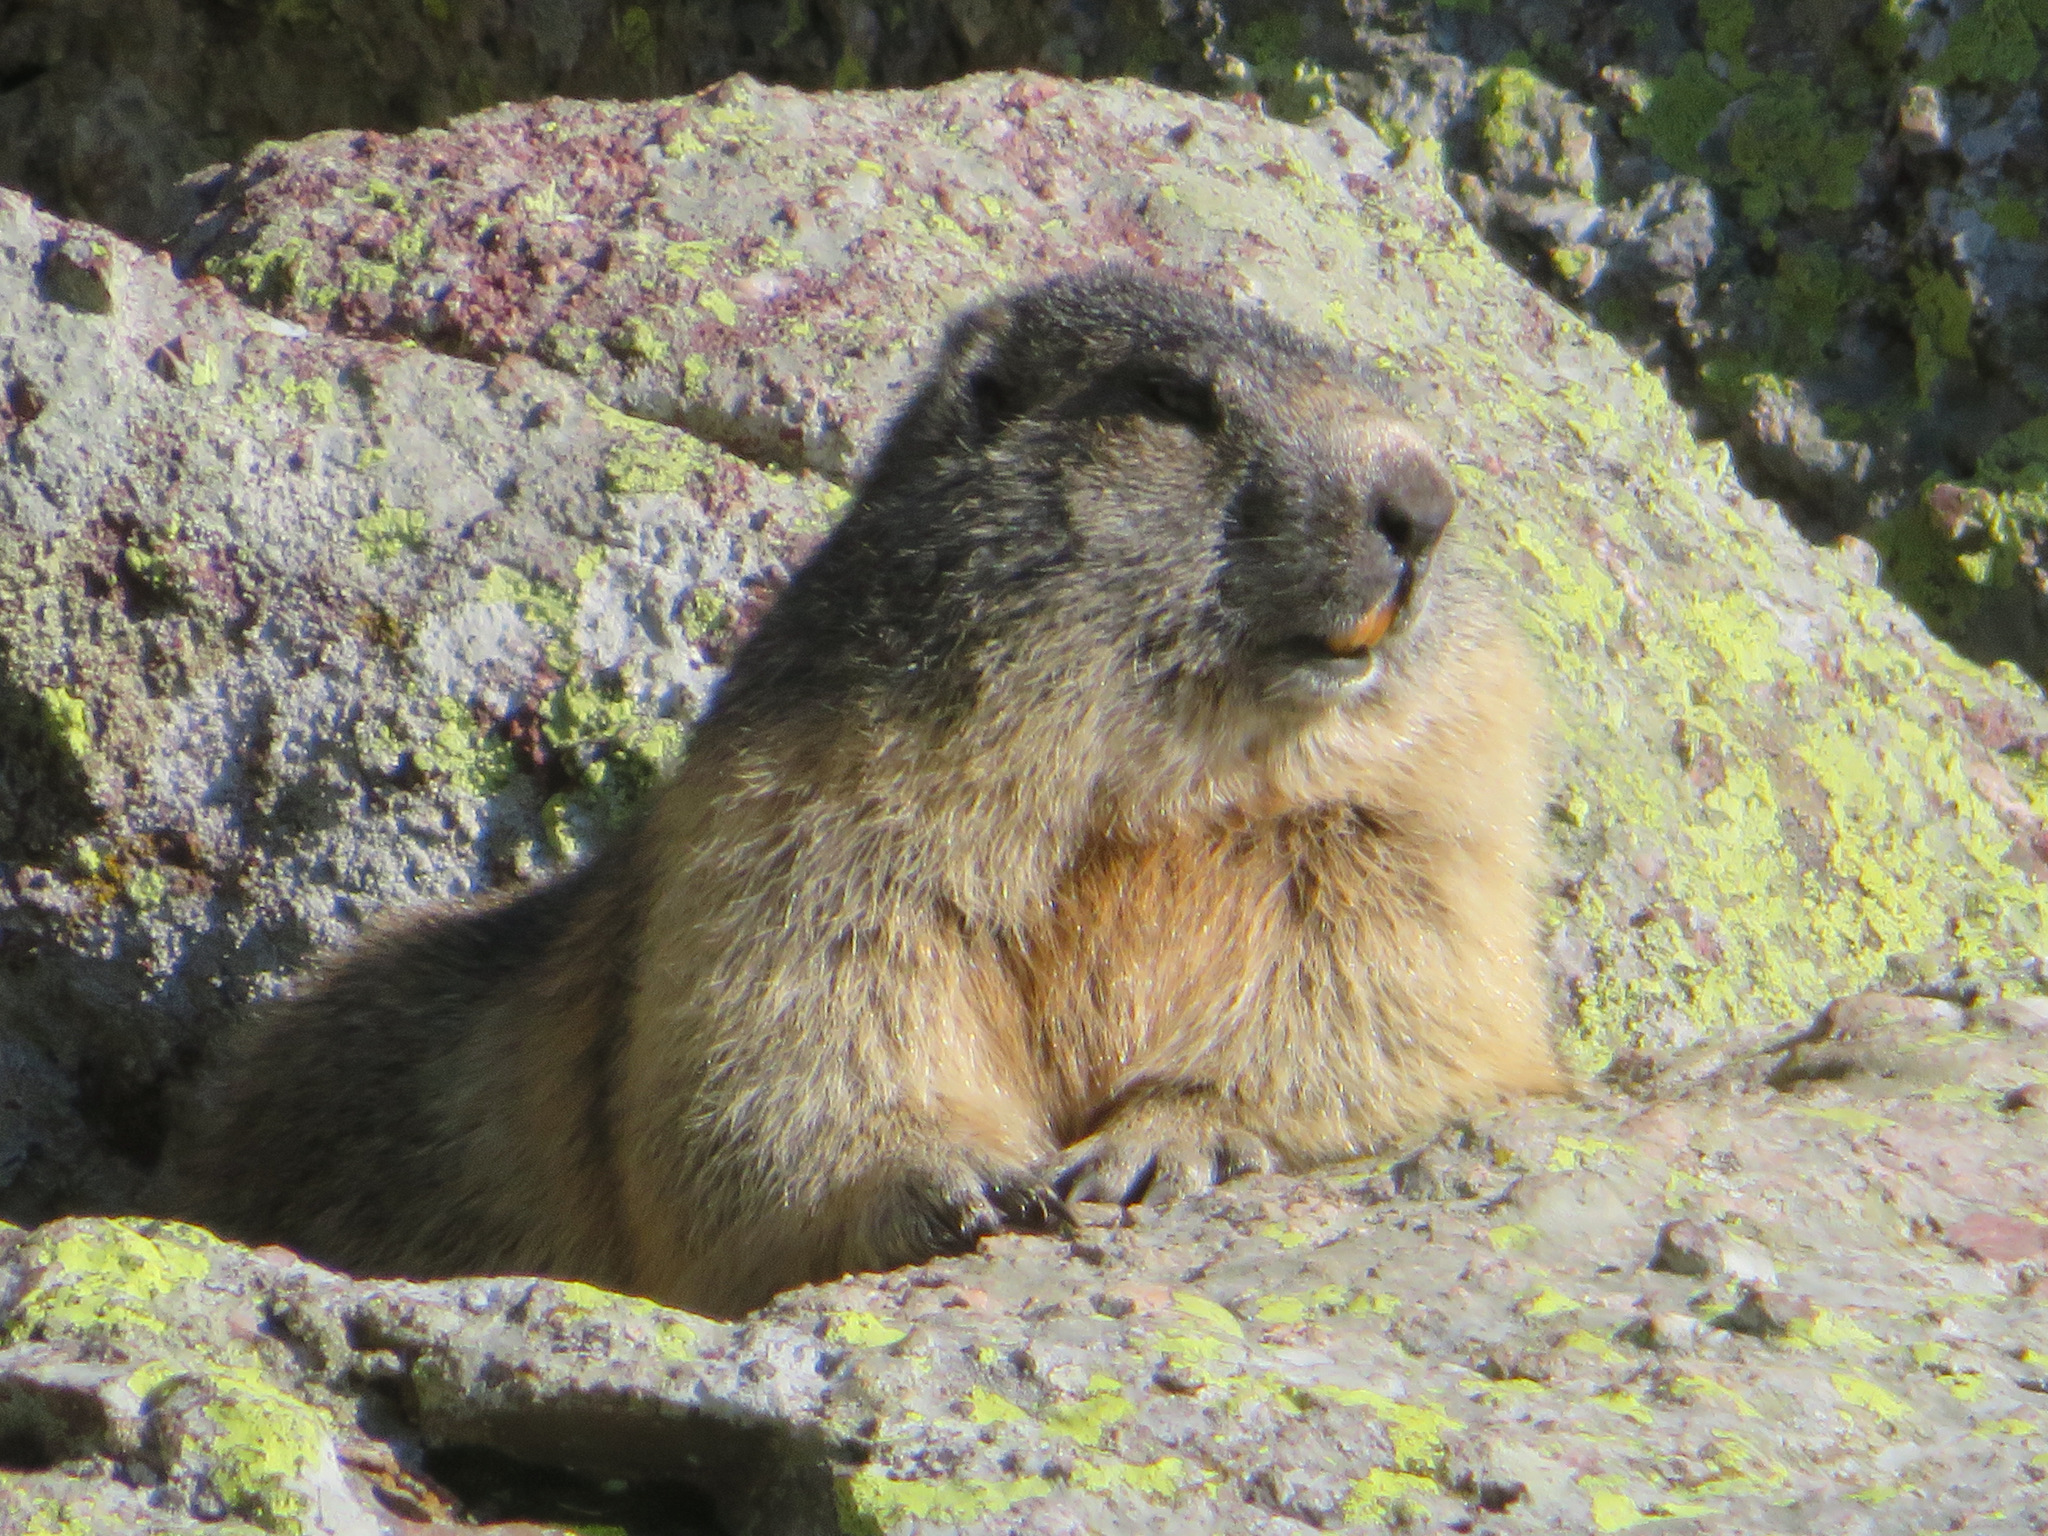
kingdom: Animalia
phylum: Chordata
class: Mammalia
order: Rodentia
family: Sciuridae
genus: Marmota
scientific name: Marmota marmota
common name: Alpine marmot
